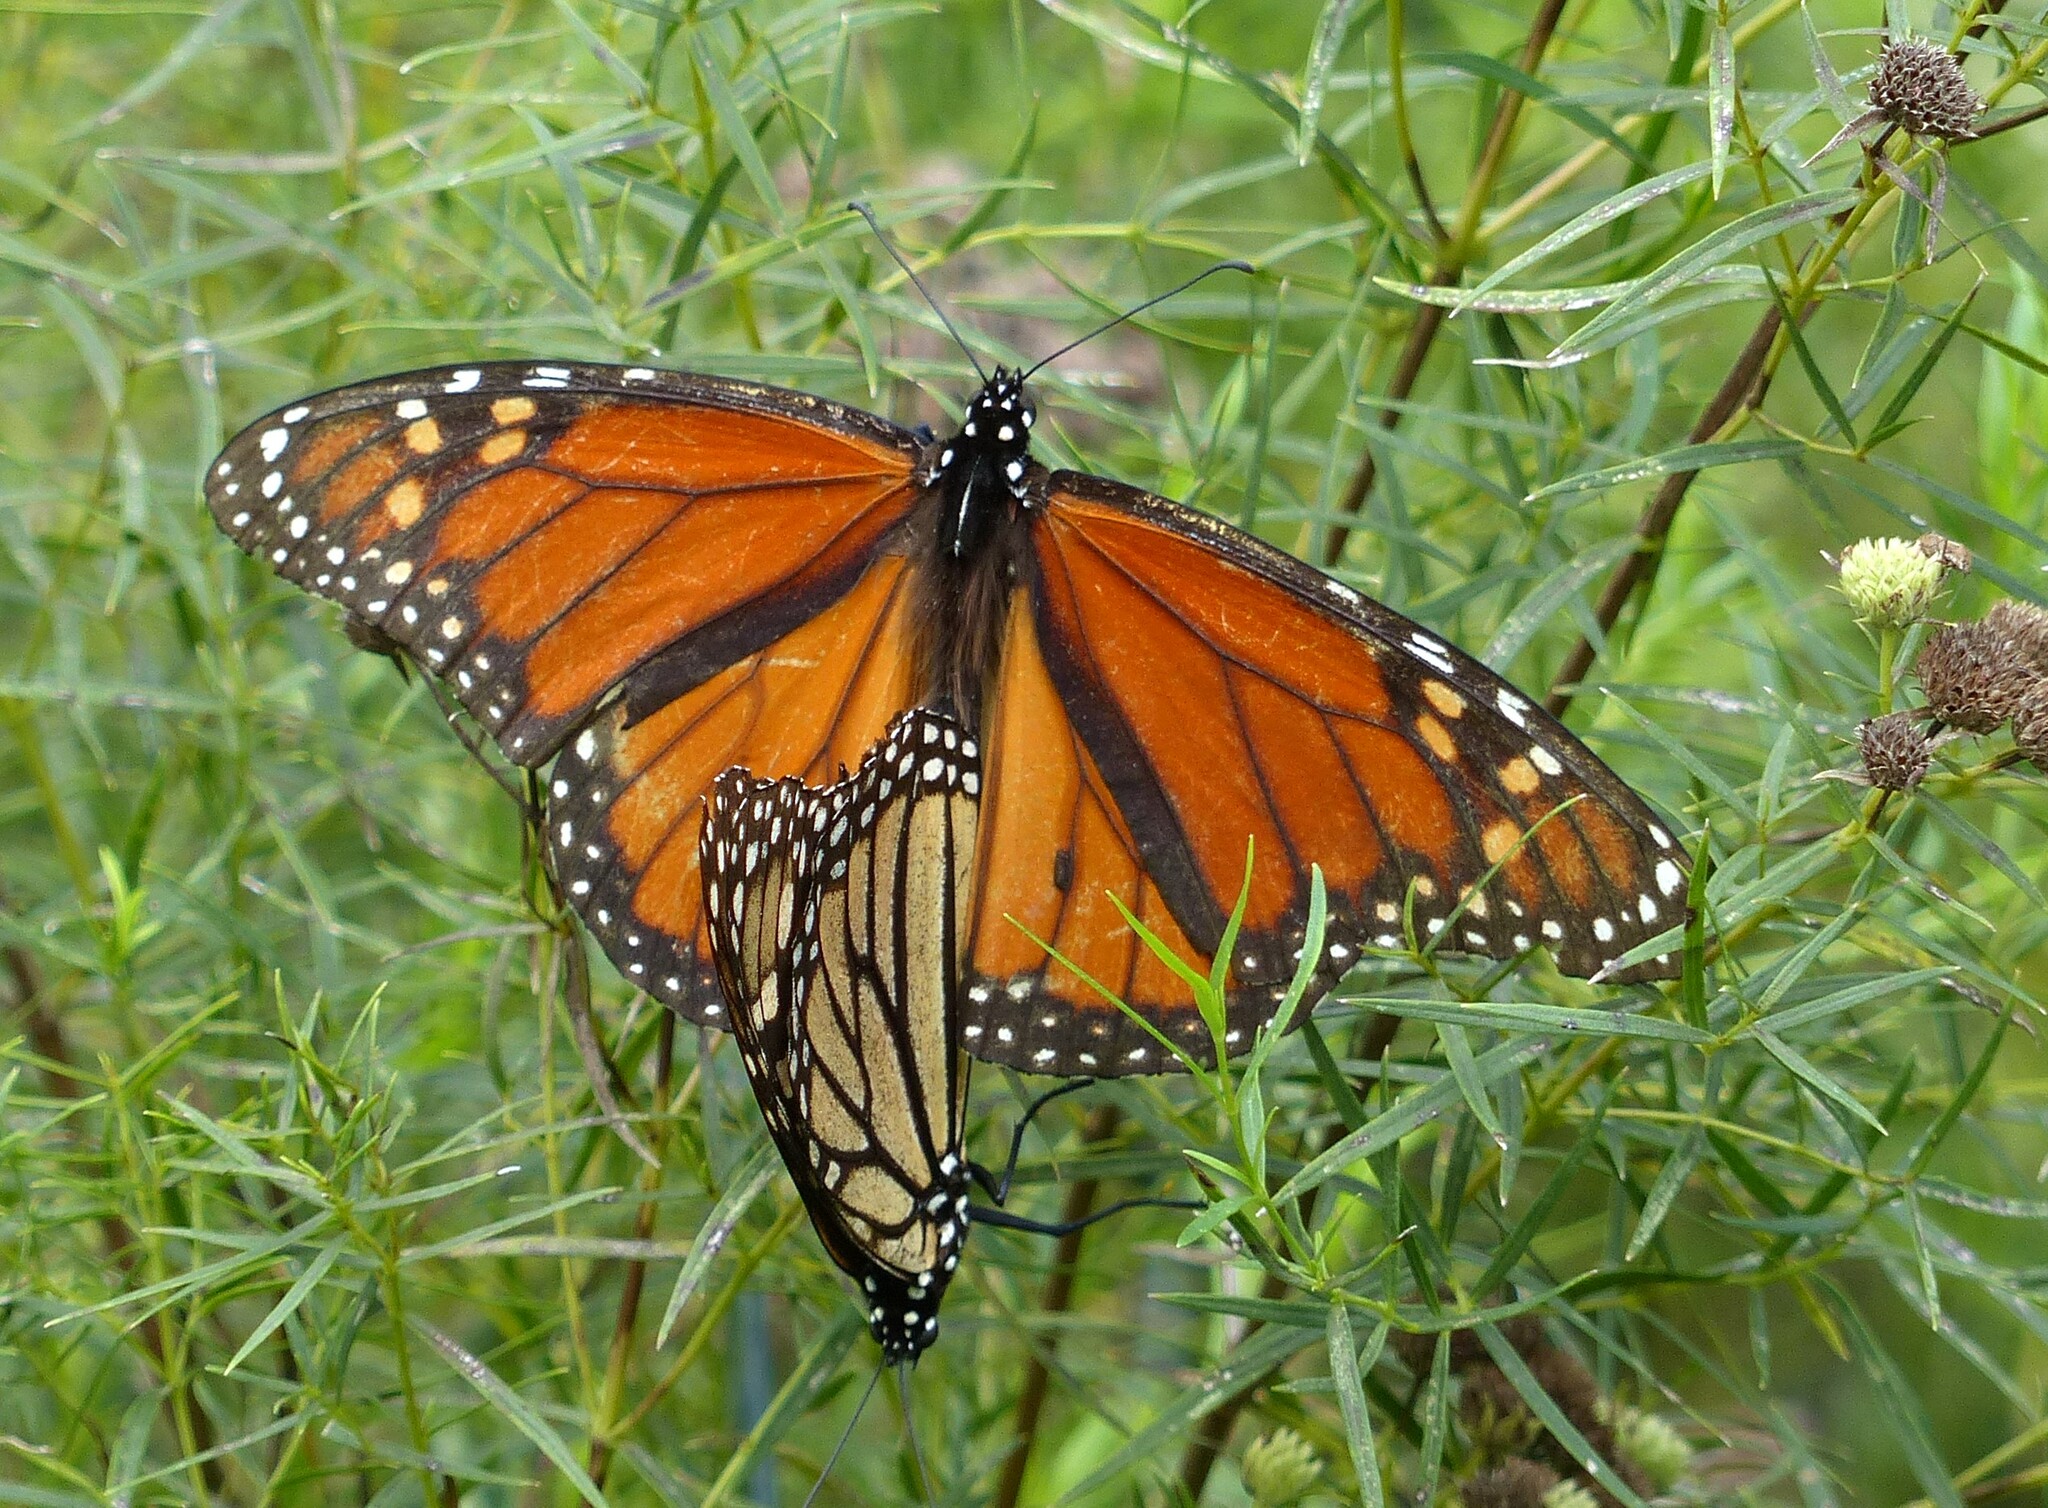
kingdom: Animalia
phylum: Arthropoda
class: Insecta
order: Lepidoptera
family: Nymphalidae
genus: Danaus
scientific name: Danaus plexippus
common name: Monarch
